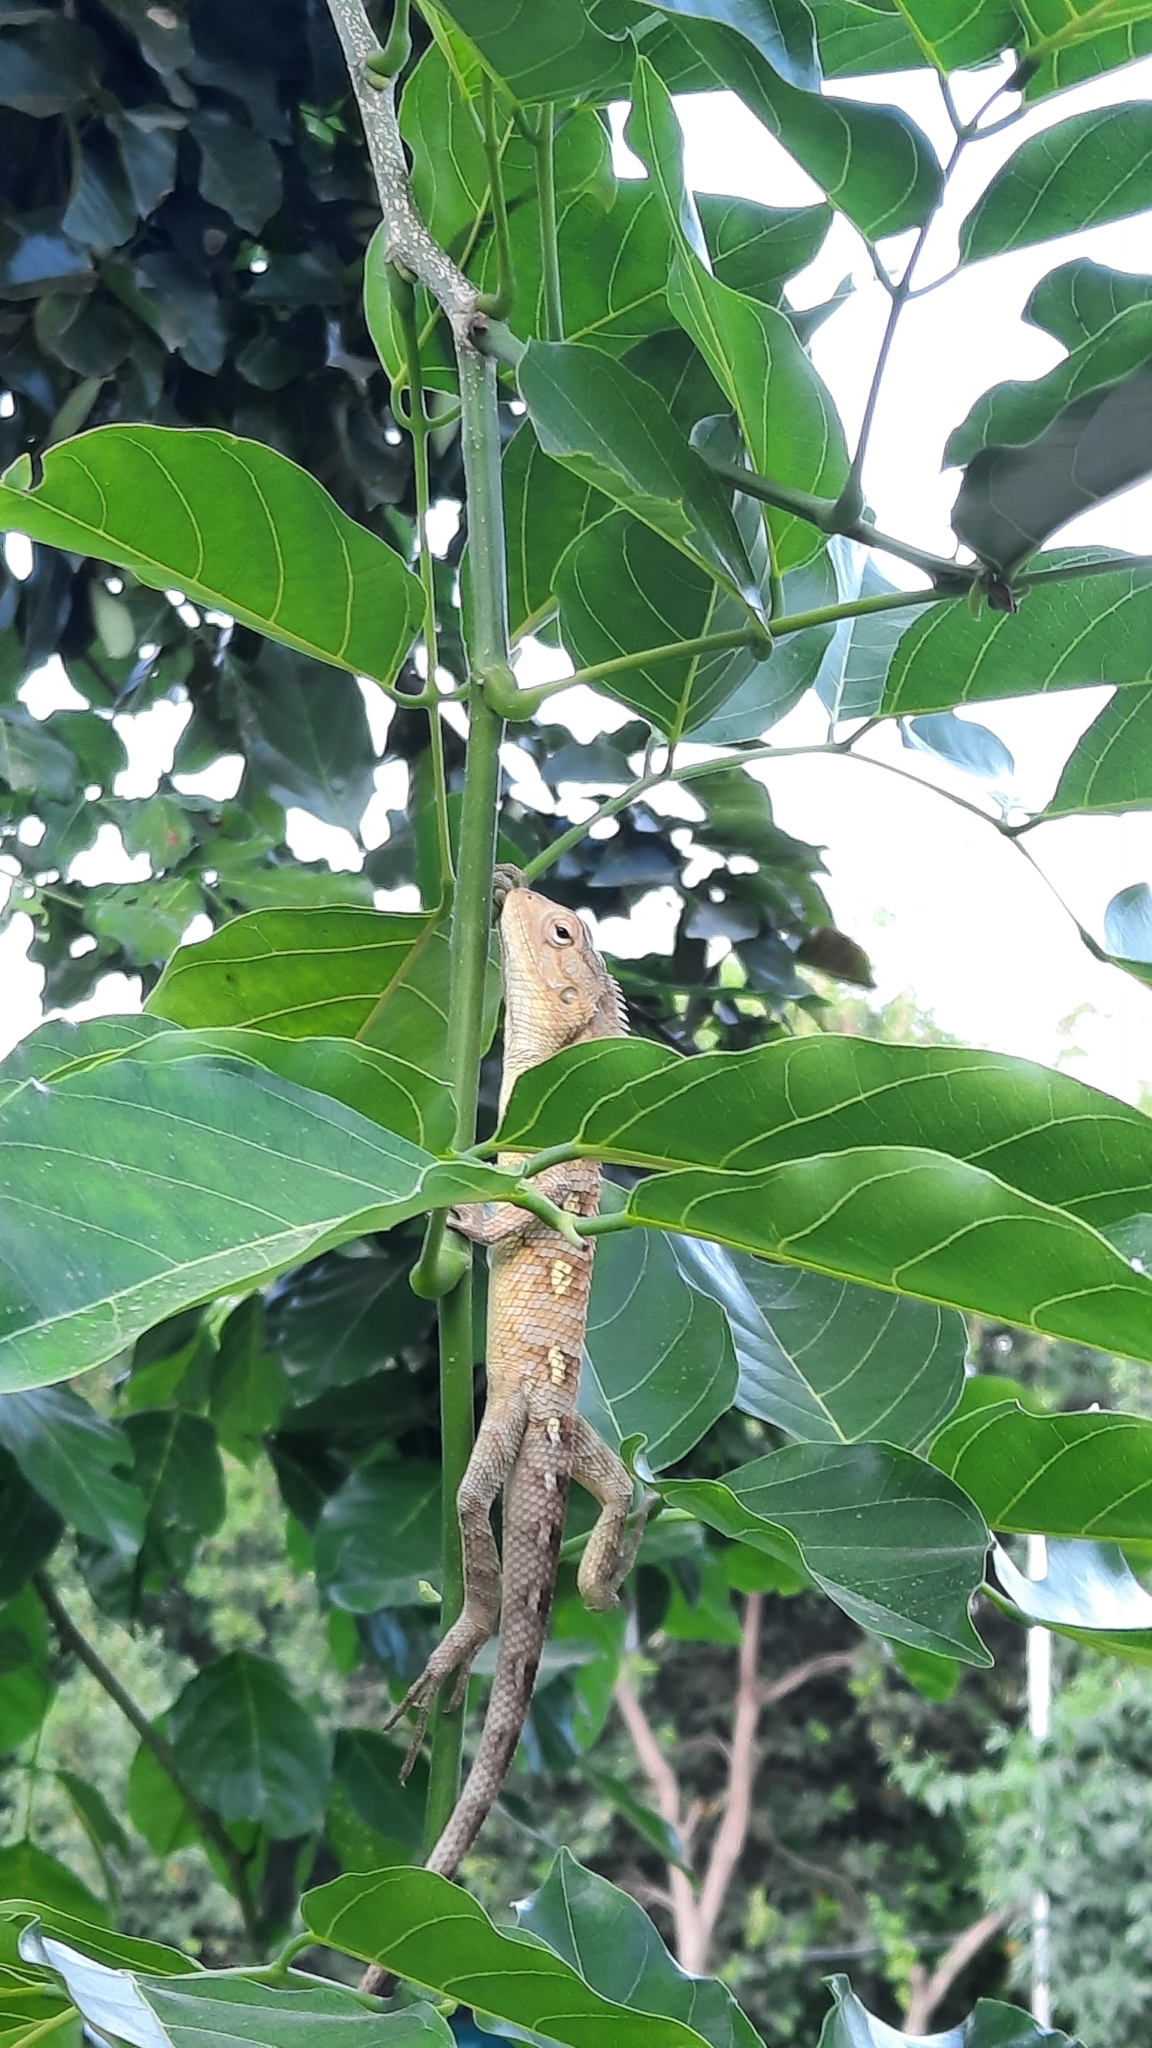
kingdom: Animalia
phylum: Chordata
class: Squamata
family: Agamidae
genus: Calotes
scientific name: Calotes versicolor
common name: Oriental garden lizard
